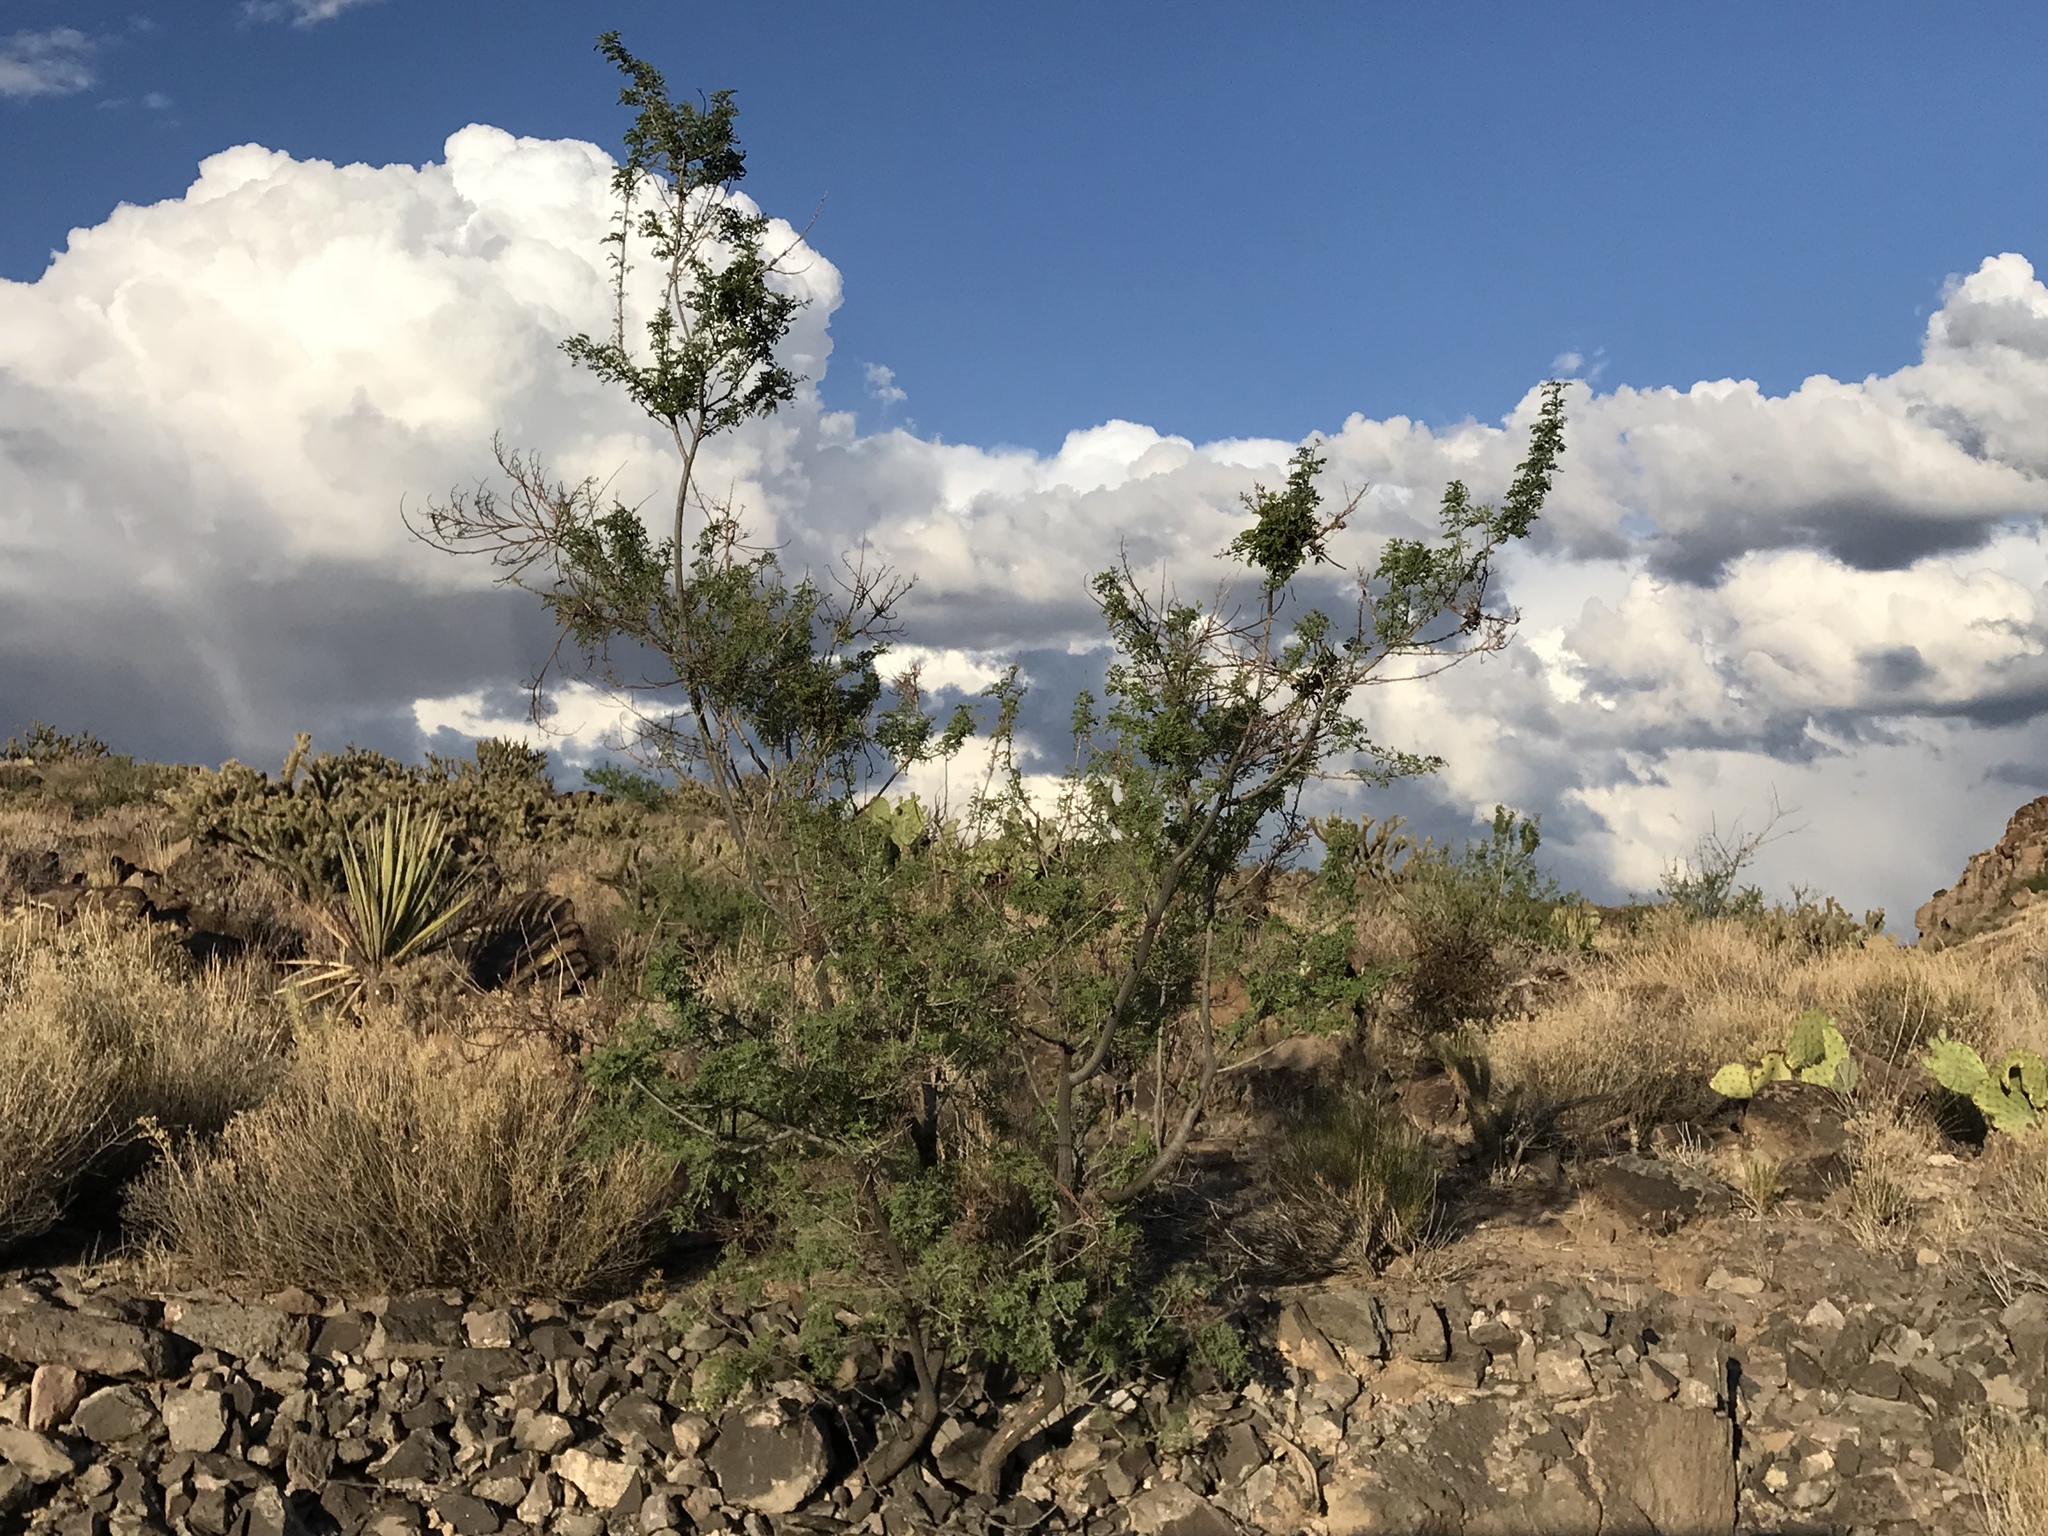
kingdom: Plantae
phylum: Tracheophyta
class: Magnoliopsida
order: Fabales
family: Fabaceae
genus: Senegalia
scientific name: Senegalia greggii
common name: Texas-mimosa
